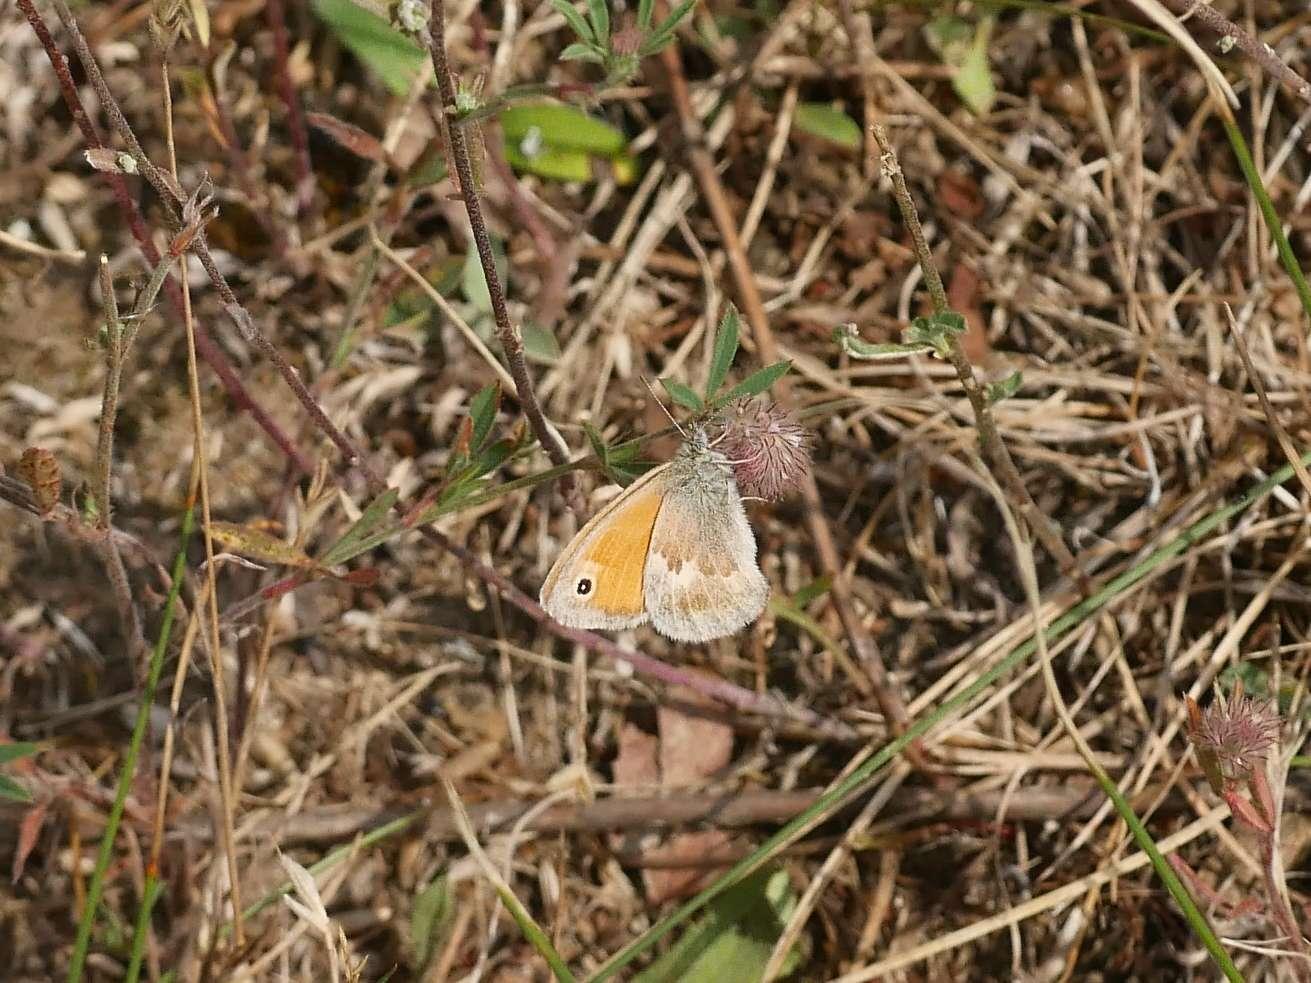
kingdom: Animalia
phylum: Arthropoda
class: Insecta
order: Lepidoptera
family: Nymphalidae
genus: Coenonympha
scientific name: Coenonympha pamphilus
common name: Small heath
